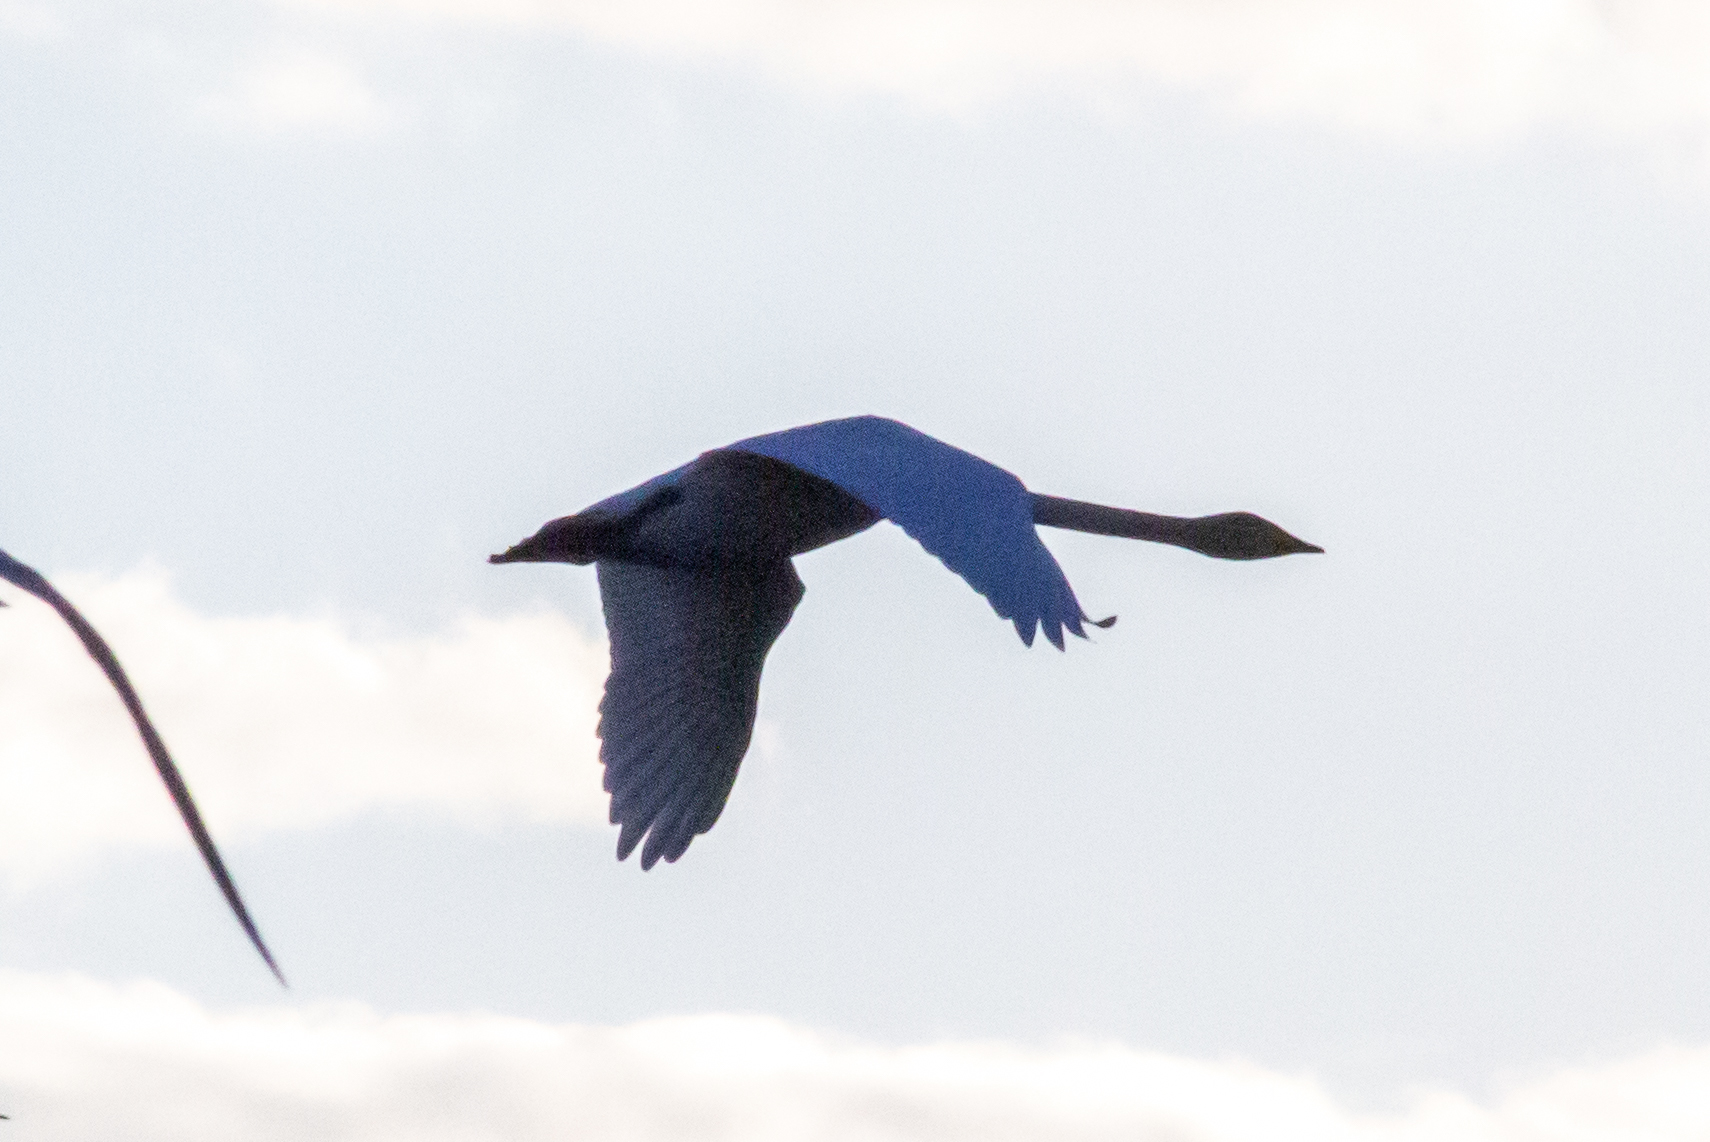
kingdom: Animalia
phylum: Chordata
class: Aves
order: Anseriformes
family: Anatidae
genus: Cygnus
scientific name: Cygnus cygnus
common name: Whooper swan
